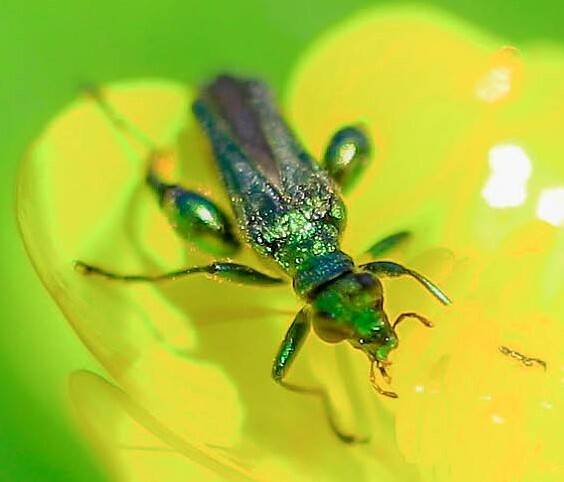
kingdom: Animalia
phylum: Arthropoda
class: Insecta
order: Coleoptera
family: Oedemeridae
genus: Oedemera
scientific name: Oedemera nobilis
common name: Swollen-thighed beetle
